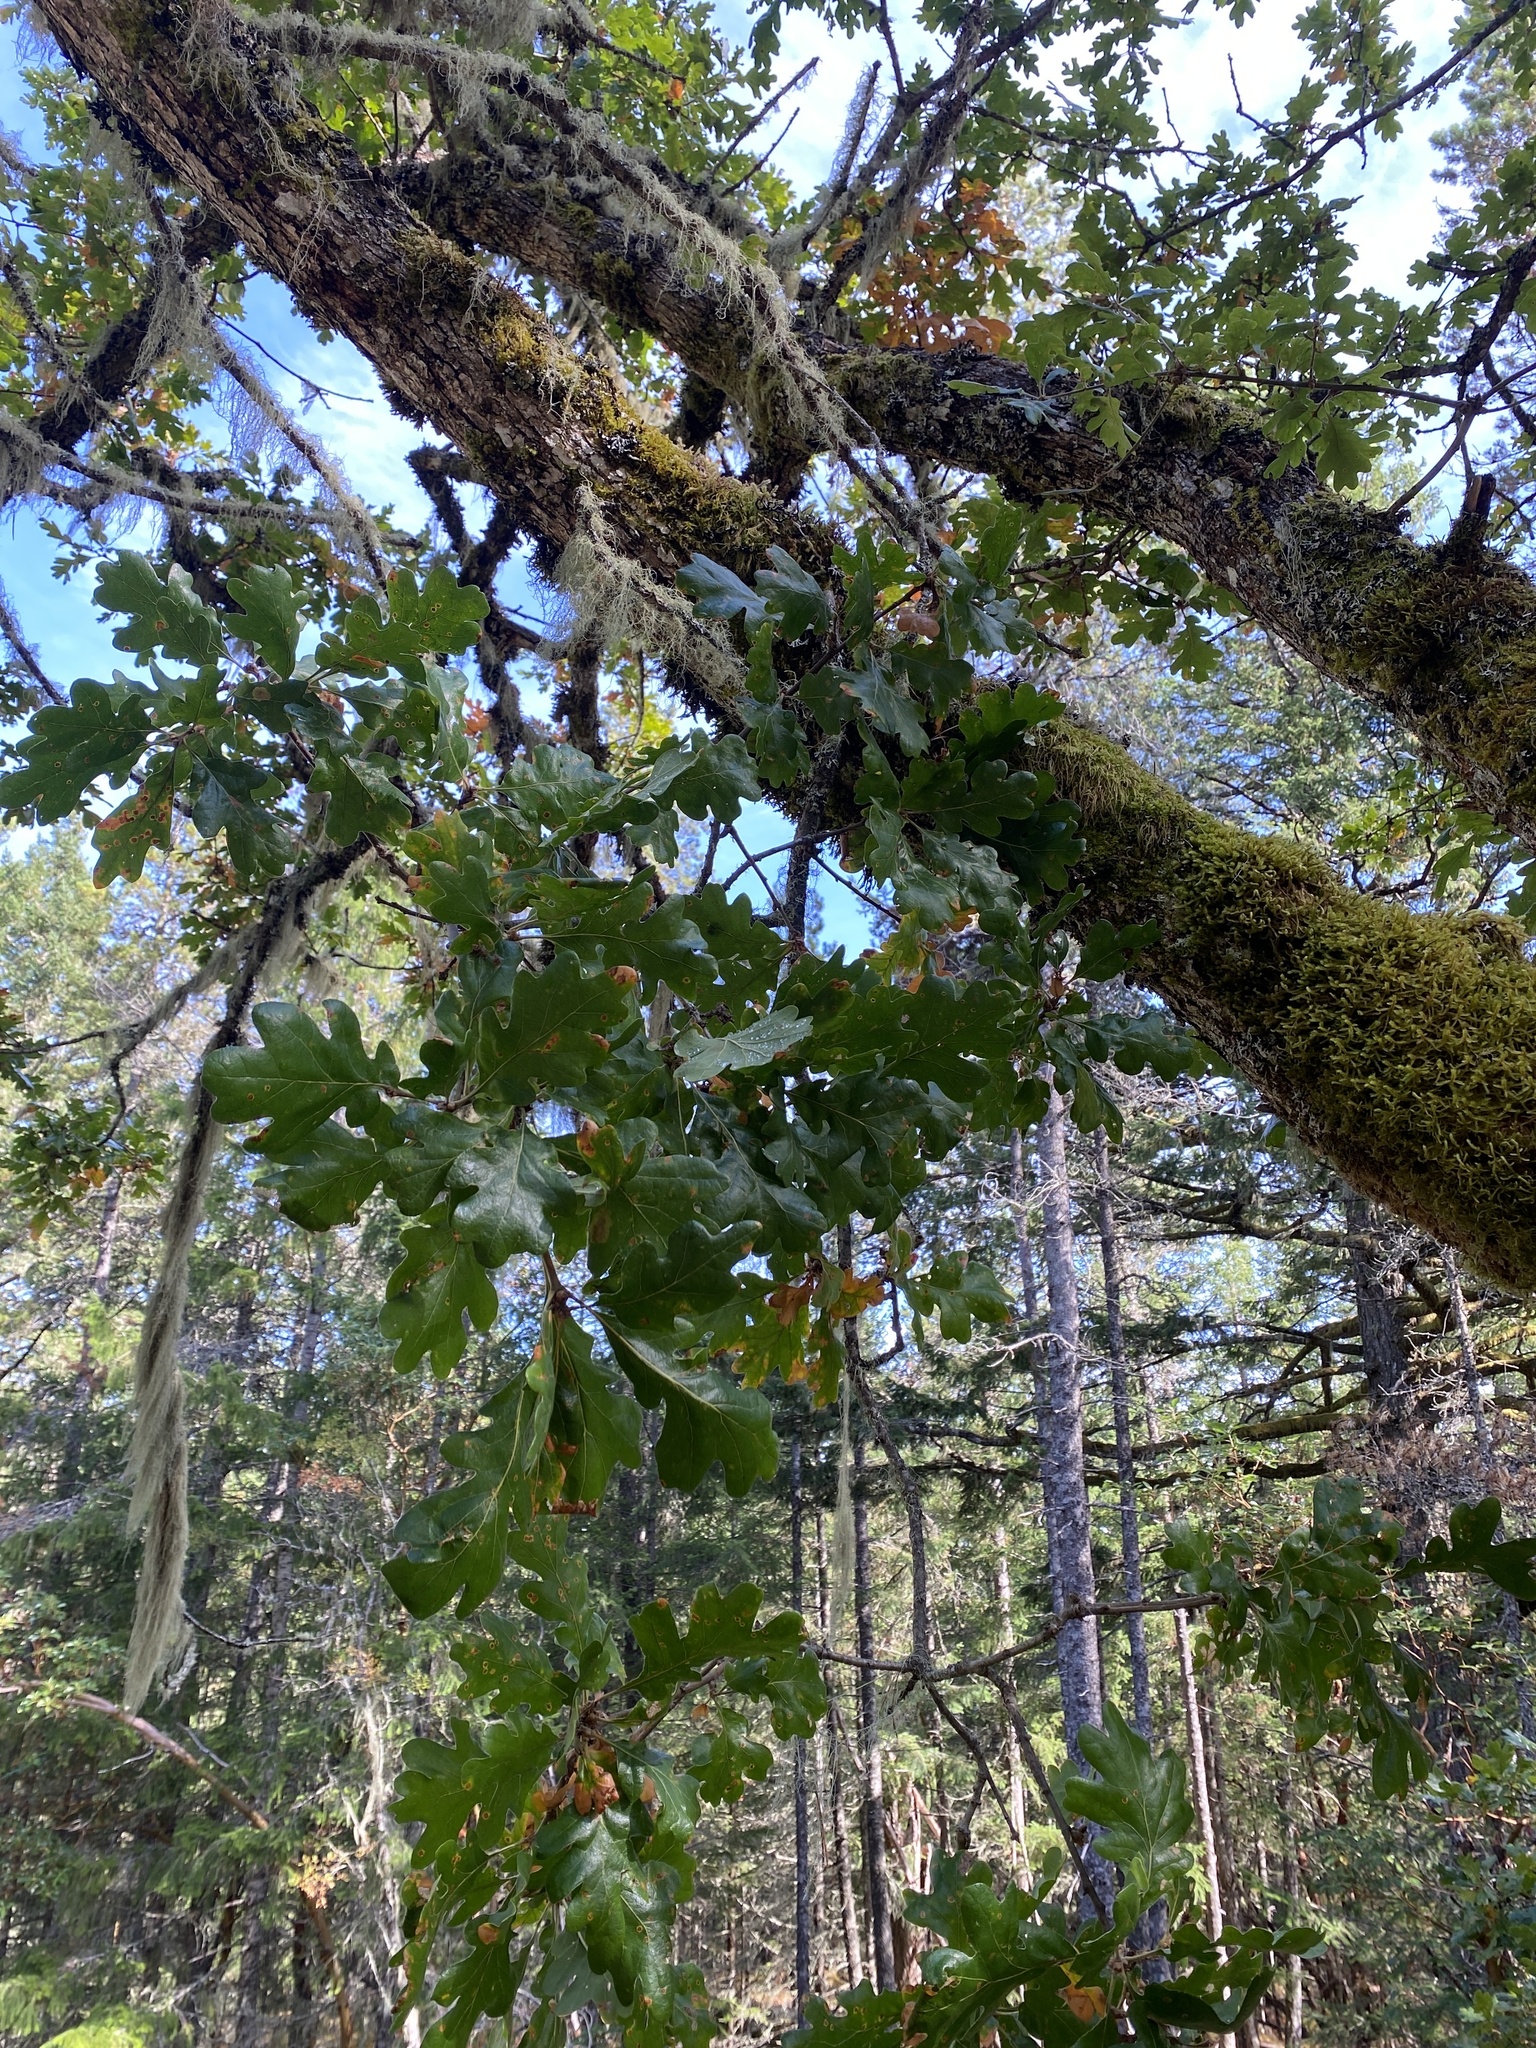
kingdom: Plantae
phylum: Tracheophyta
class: Magnoliopsida
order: Fagales
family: Fagaceae
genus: Quercus
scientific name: Quercus garryana
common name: Garry oak
